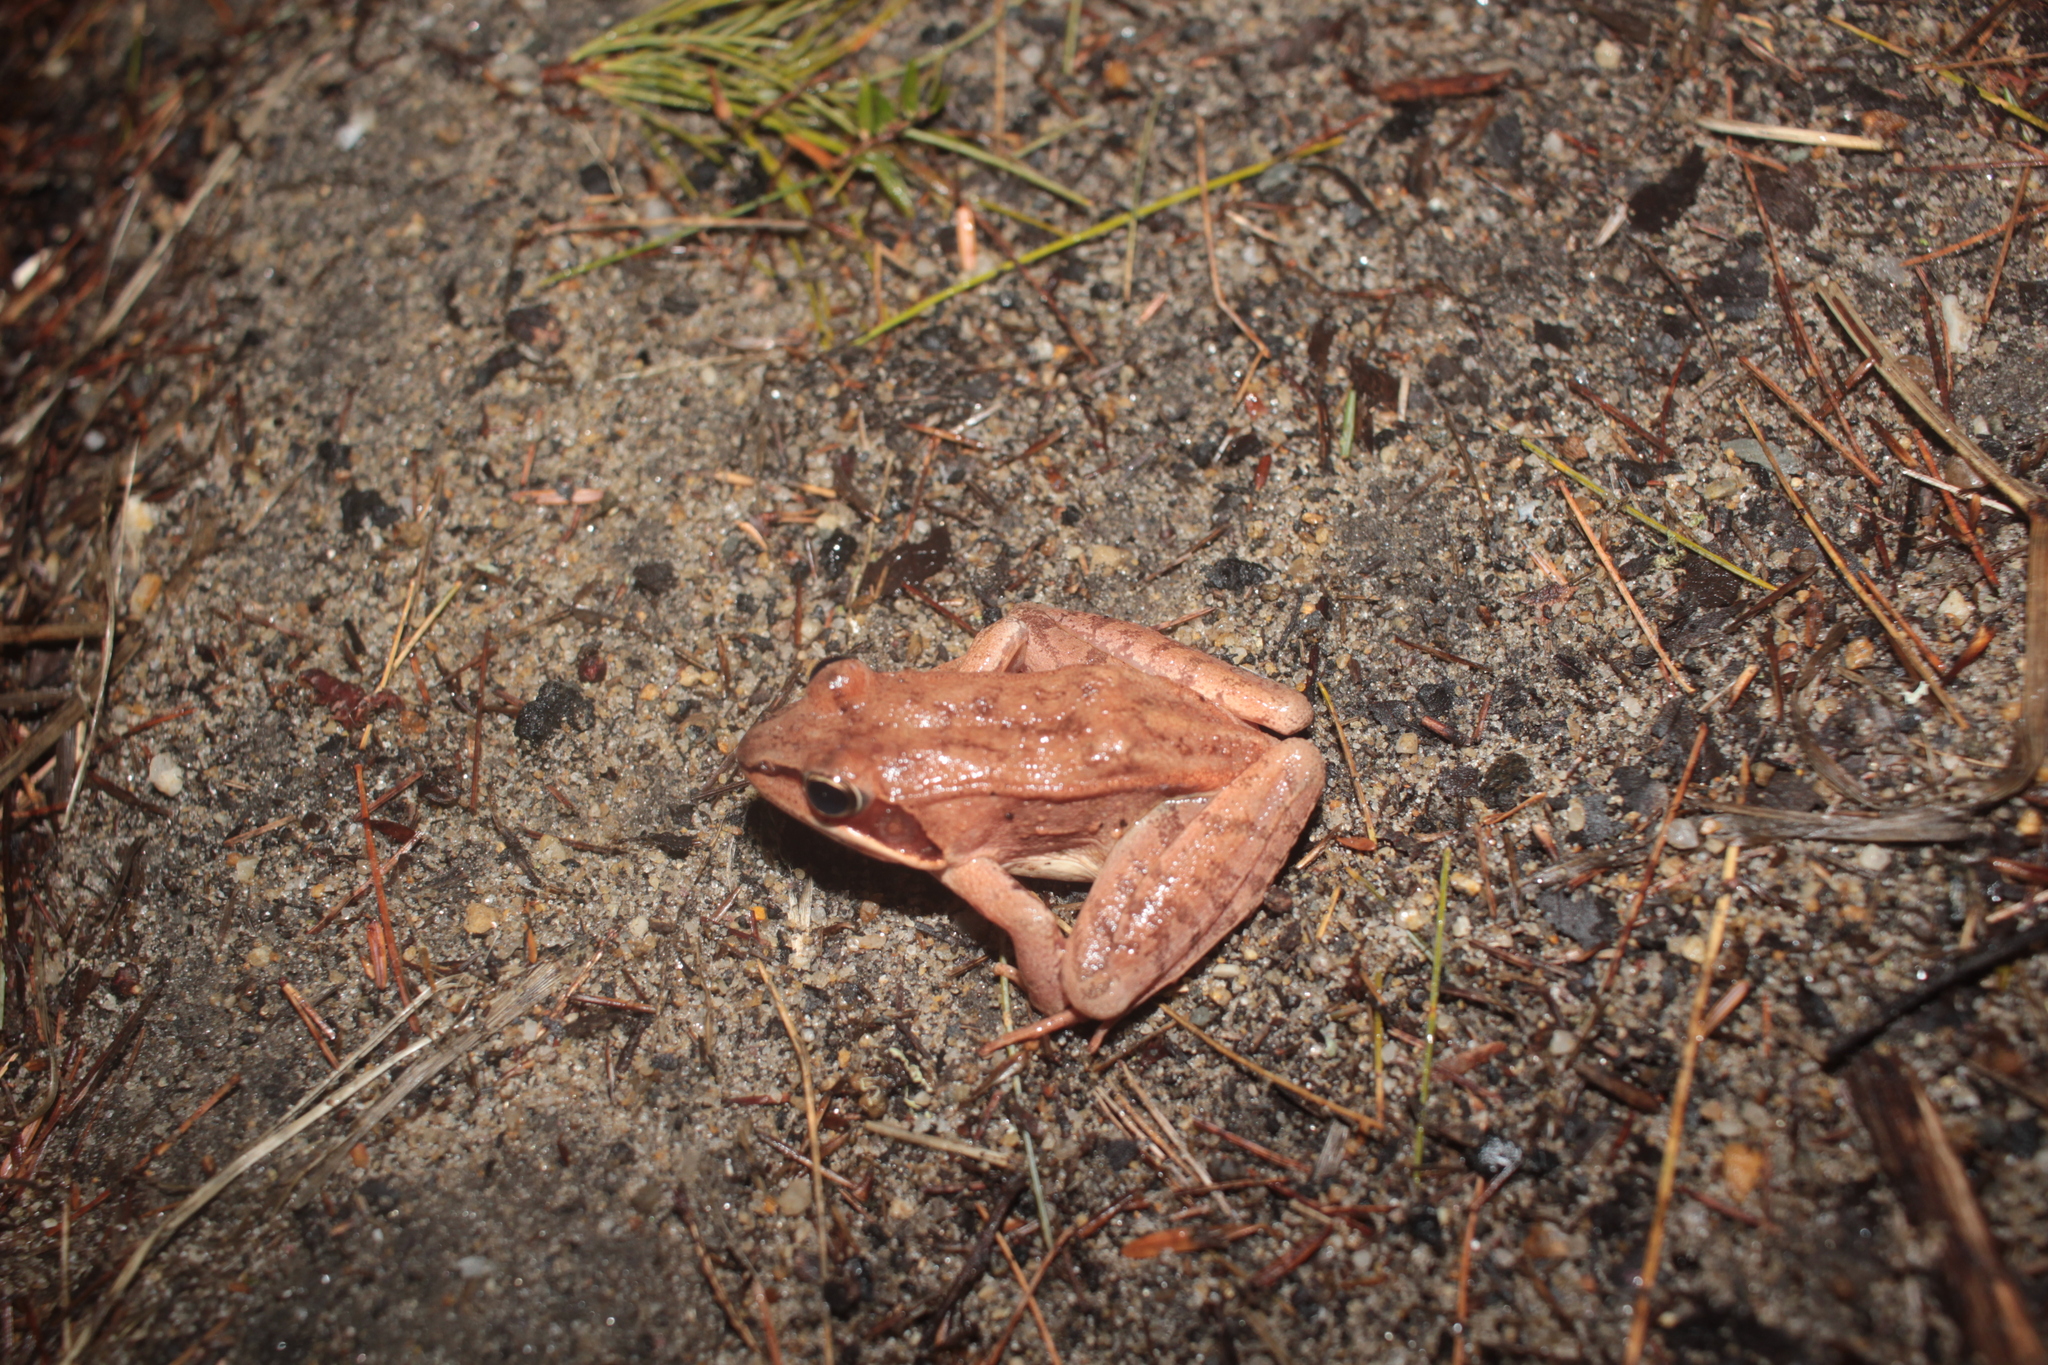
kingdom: Animalia
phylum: Chordata
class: Amphibia
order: Anura
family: Ranidae
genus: Lithobates
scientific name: Lithobates sylvaticus
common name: Wood frog
